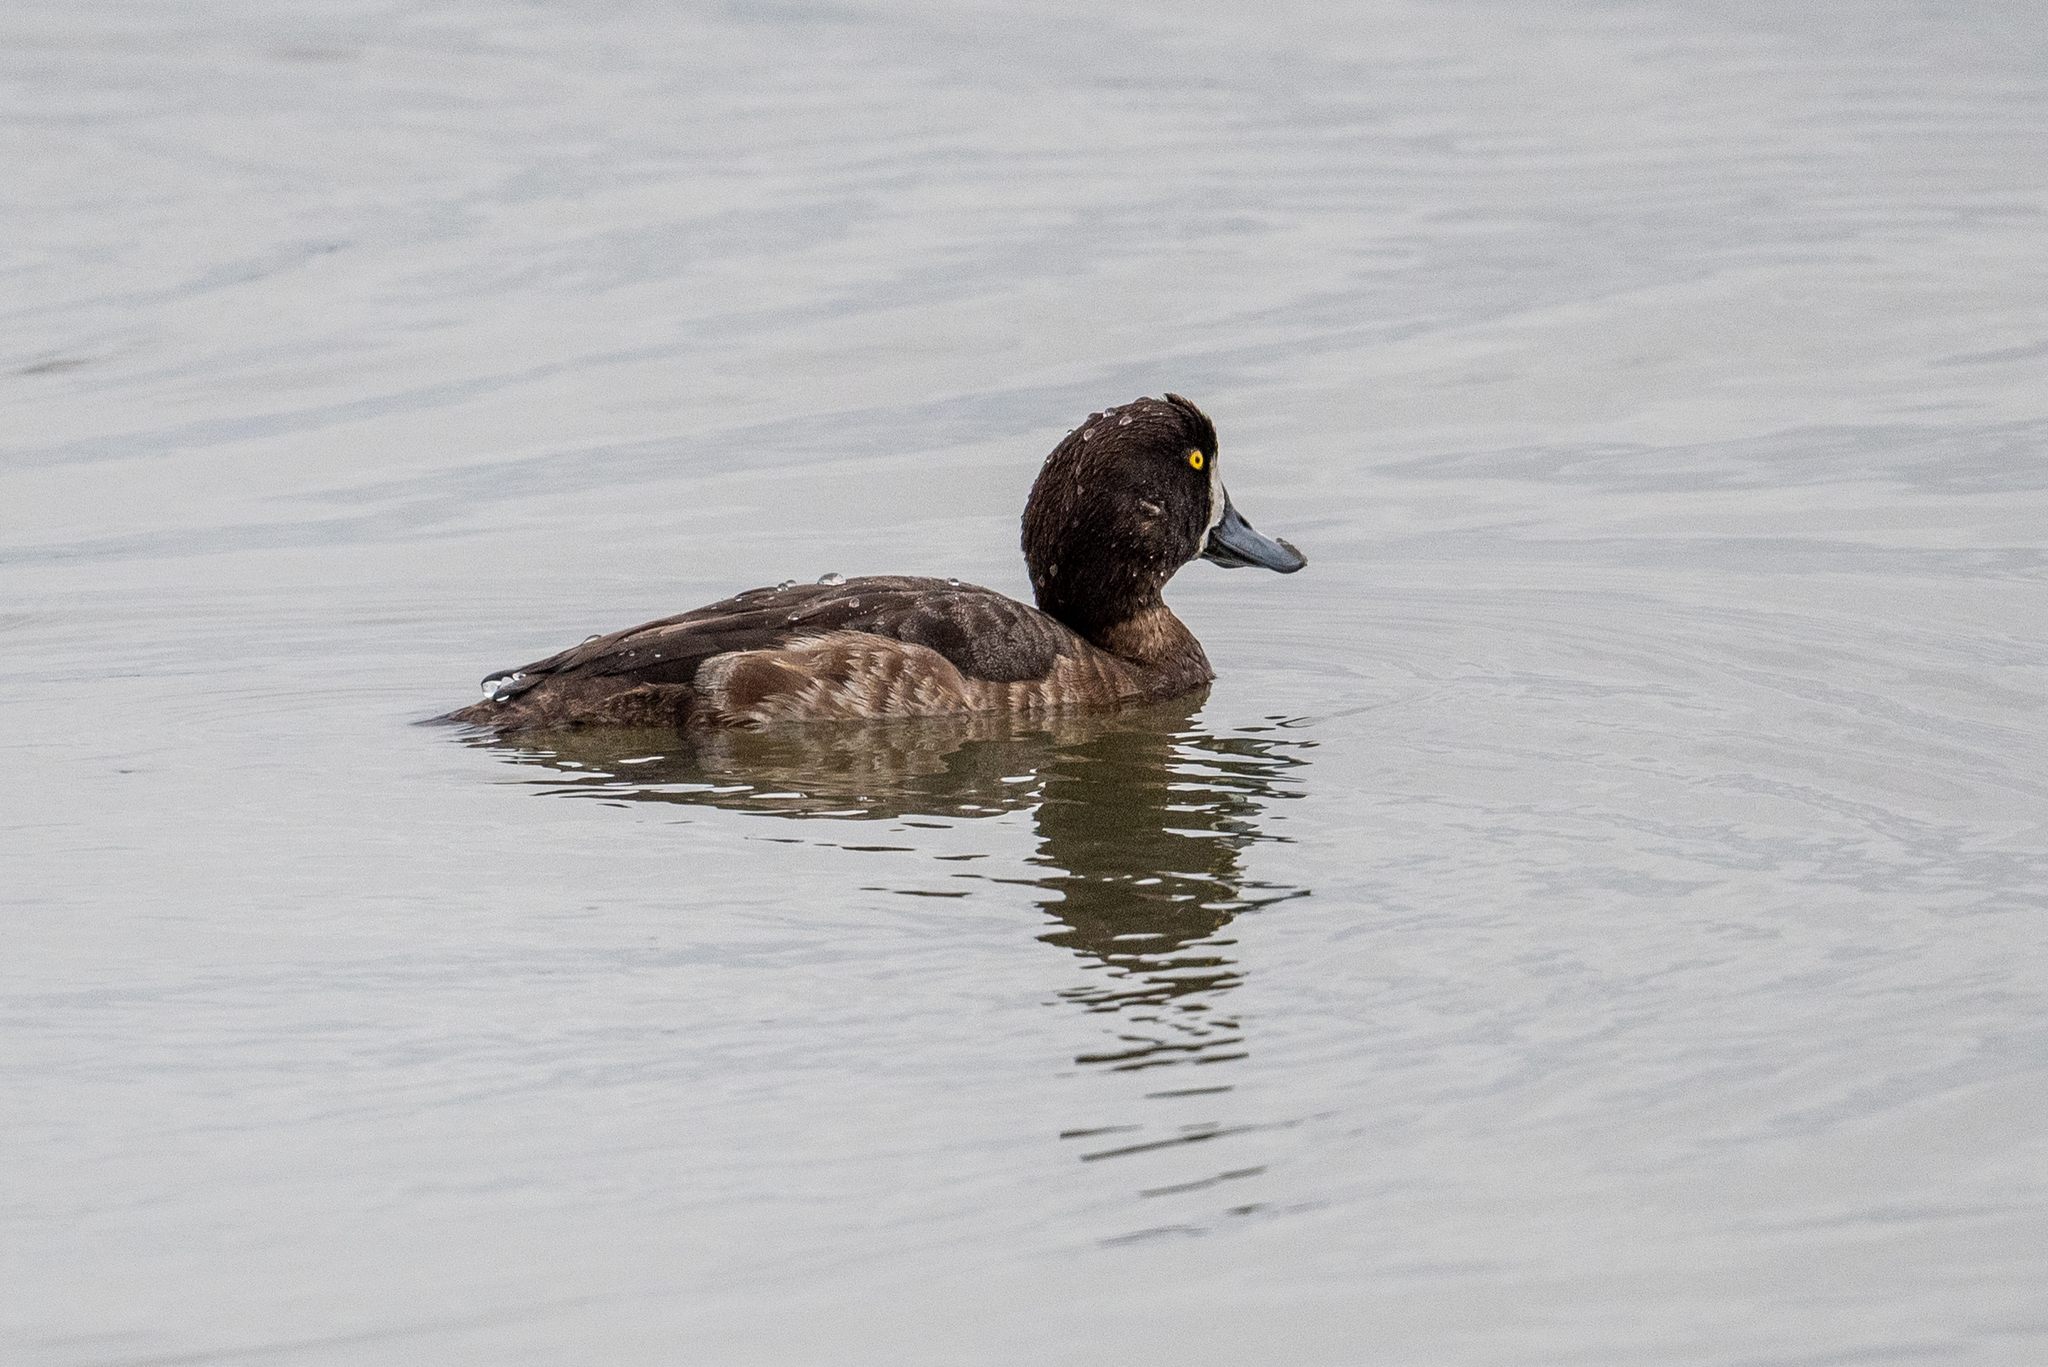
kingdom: Animalia
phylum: Chordata
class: Aves
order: Anseriformes
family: Anatidae
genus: Aythya
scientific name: Aythya marila
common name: Greater scaup
